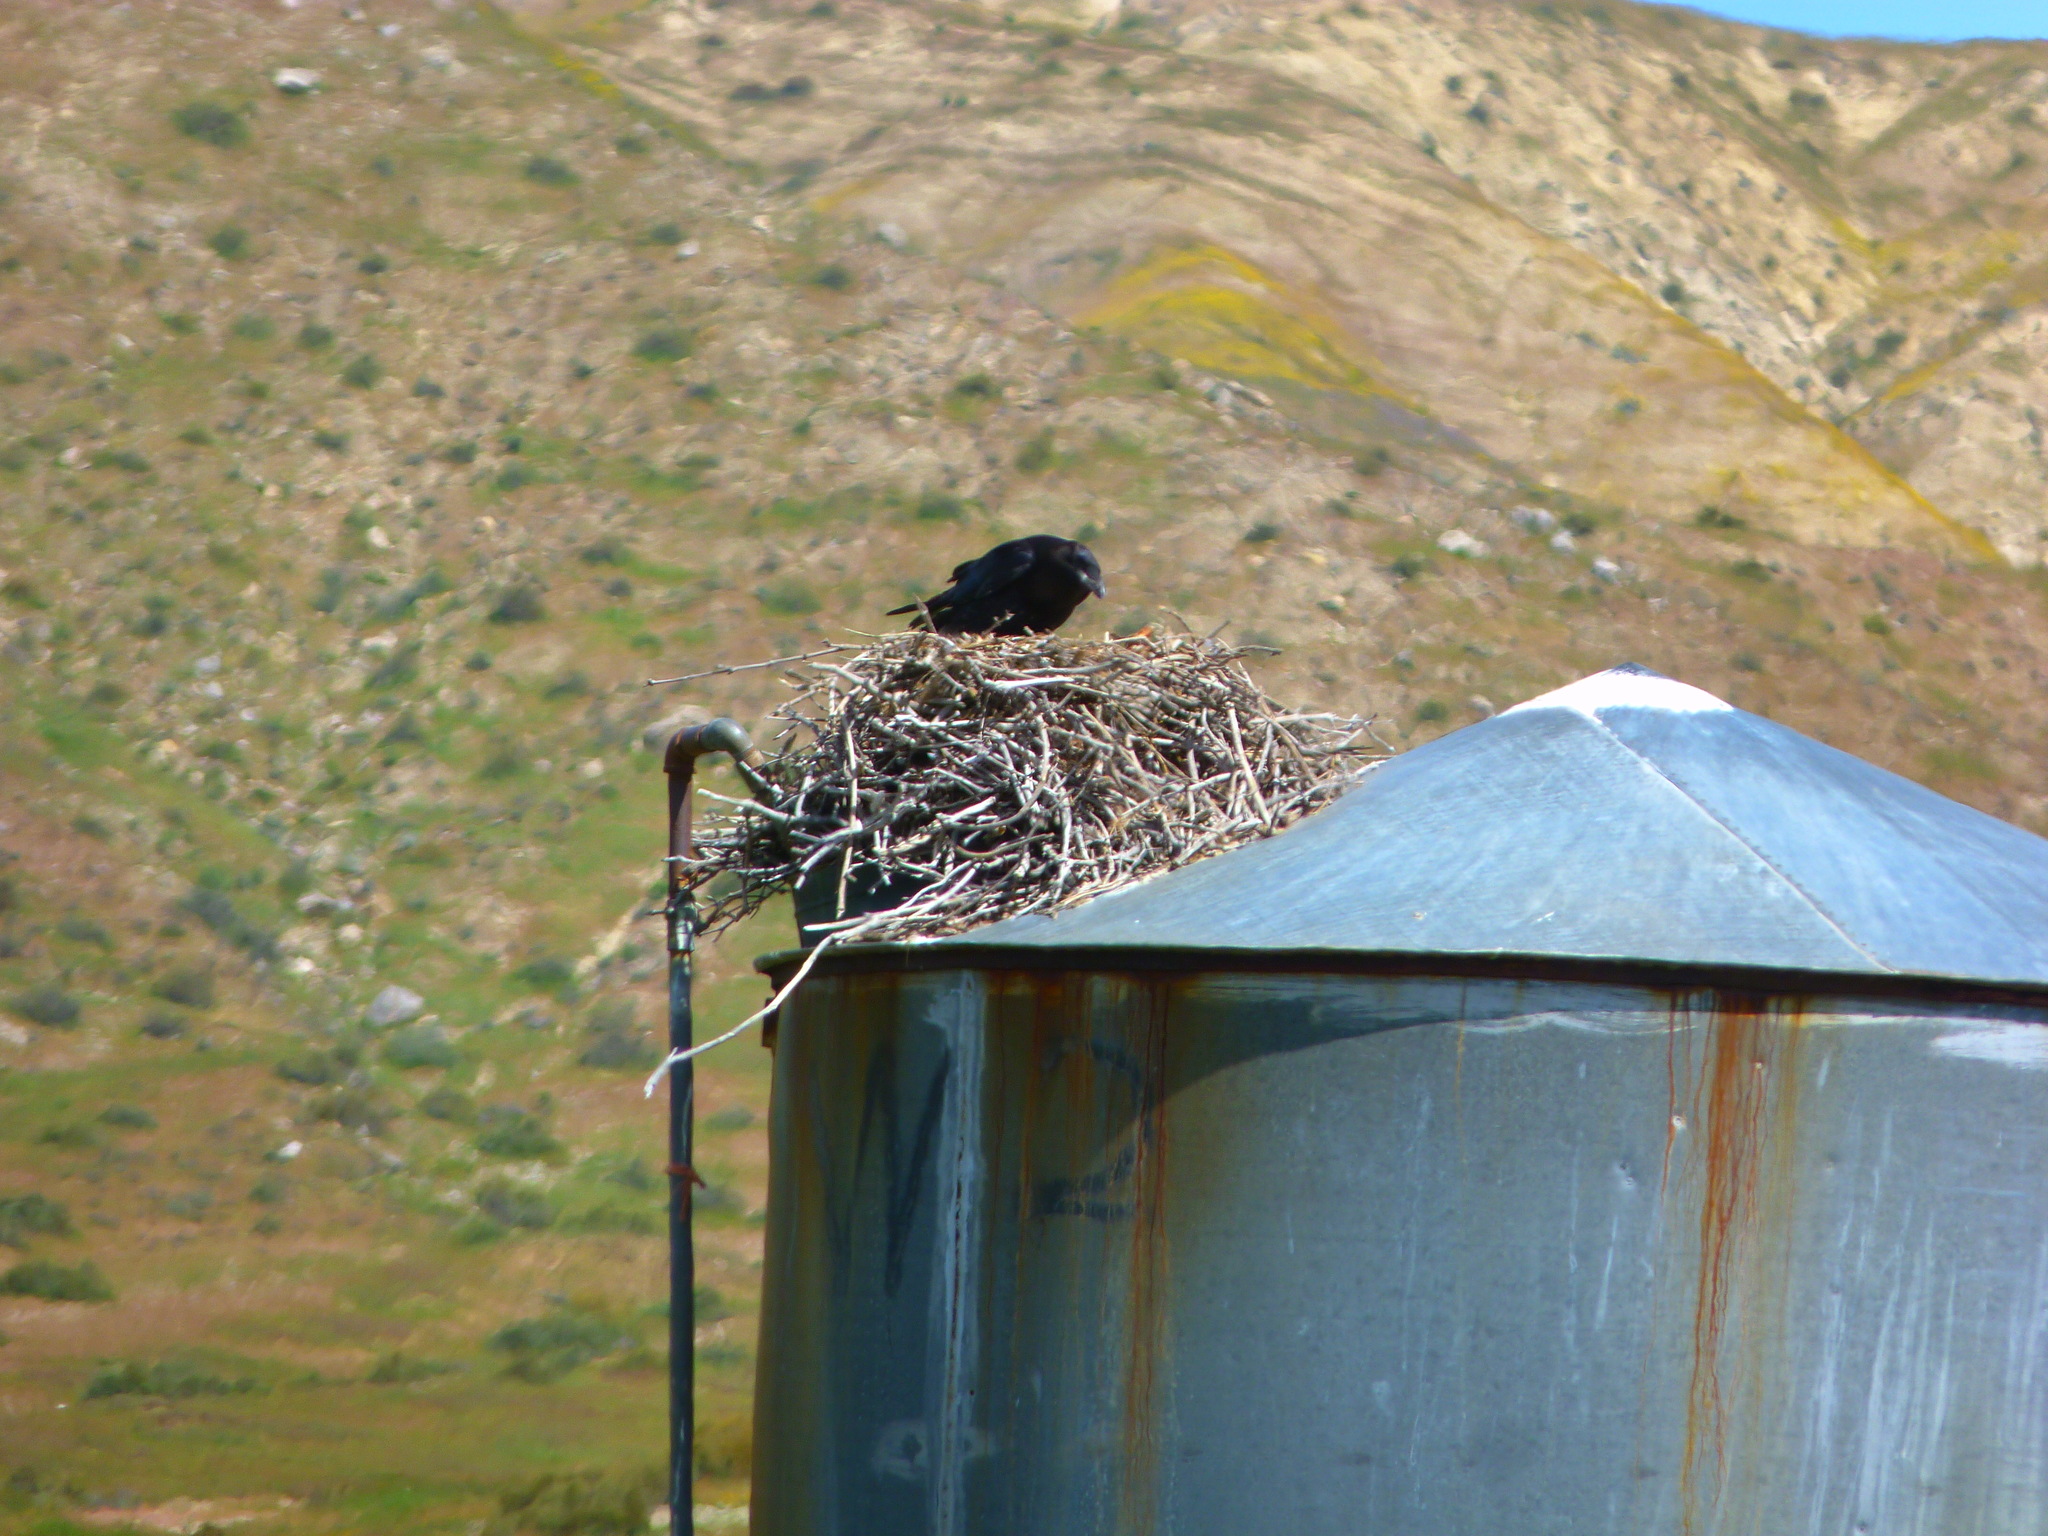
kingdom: Animalia
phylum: Chordata
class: Aves
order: Passeriformes
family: Corvidae
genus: Corvus
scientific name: Corvus corax
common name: Common raven
